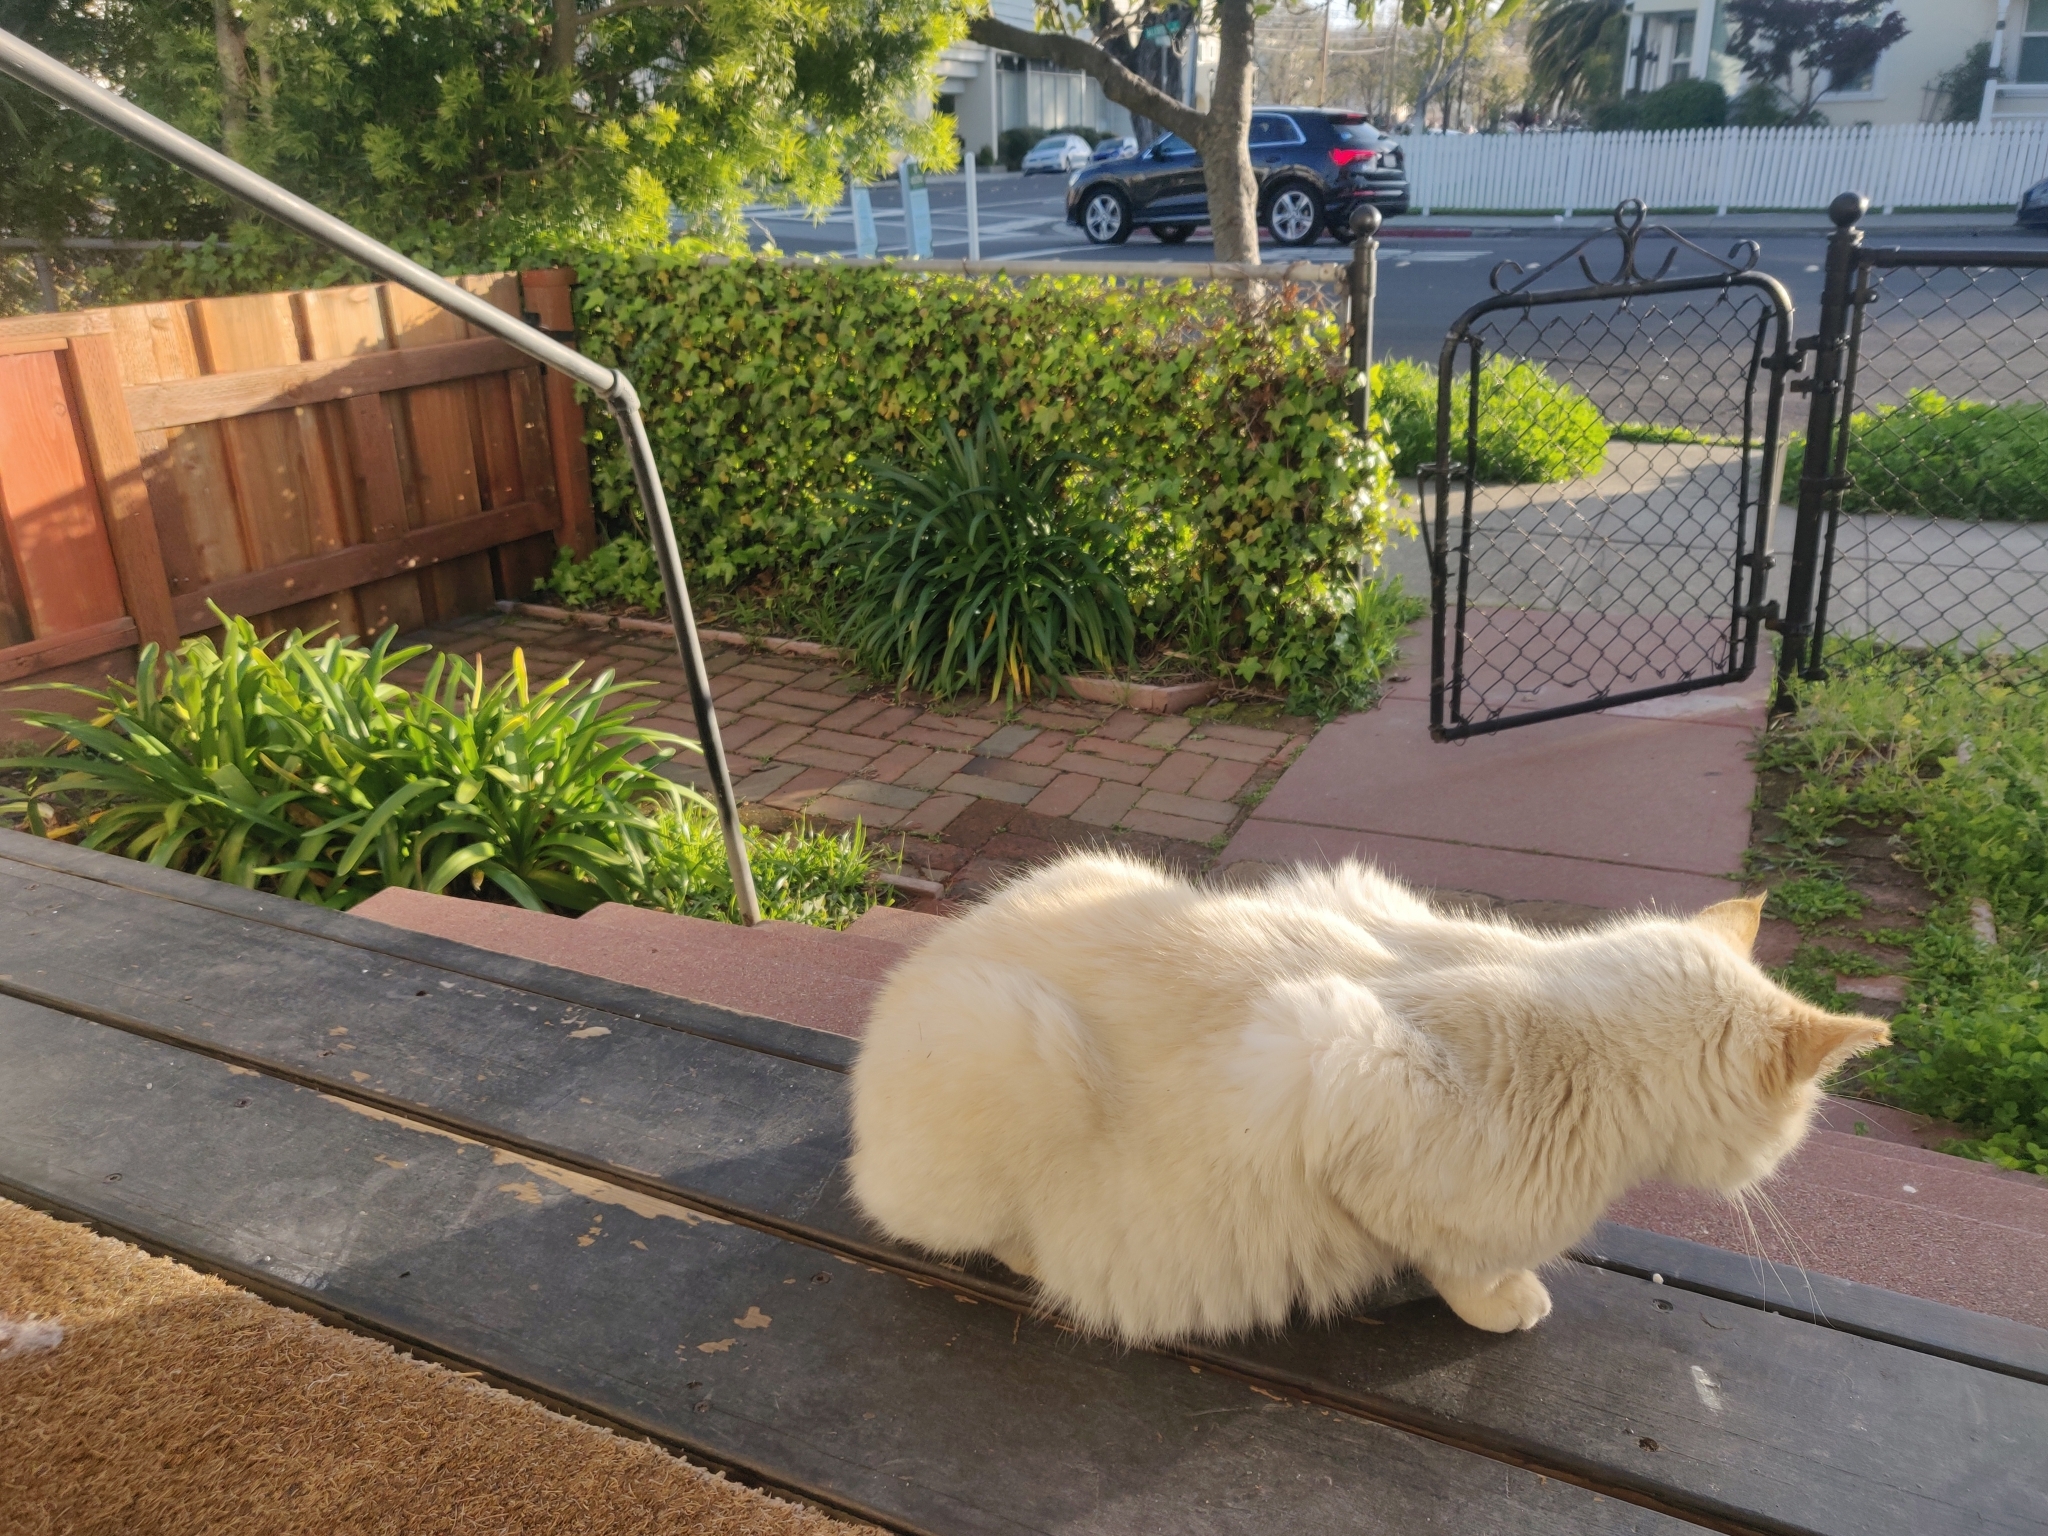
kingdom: Animalia
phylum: Chordata
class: Mammalia
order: Carnivora
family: Felidae
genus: Felis
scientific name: Felis catus
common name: Domestic cat
